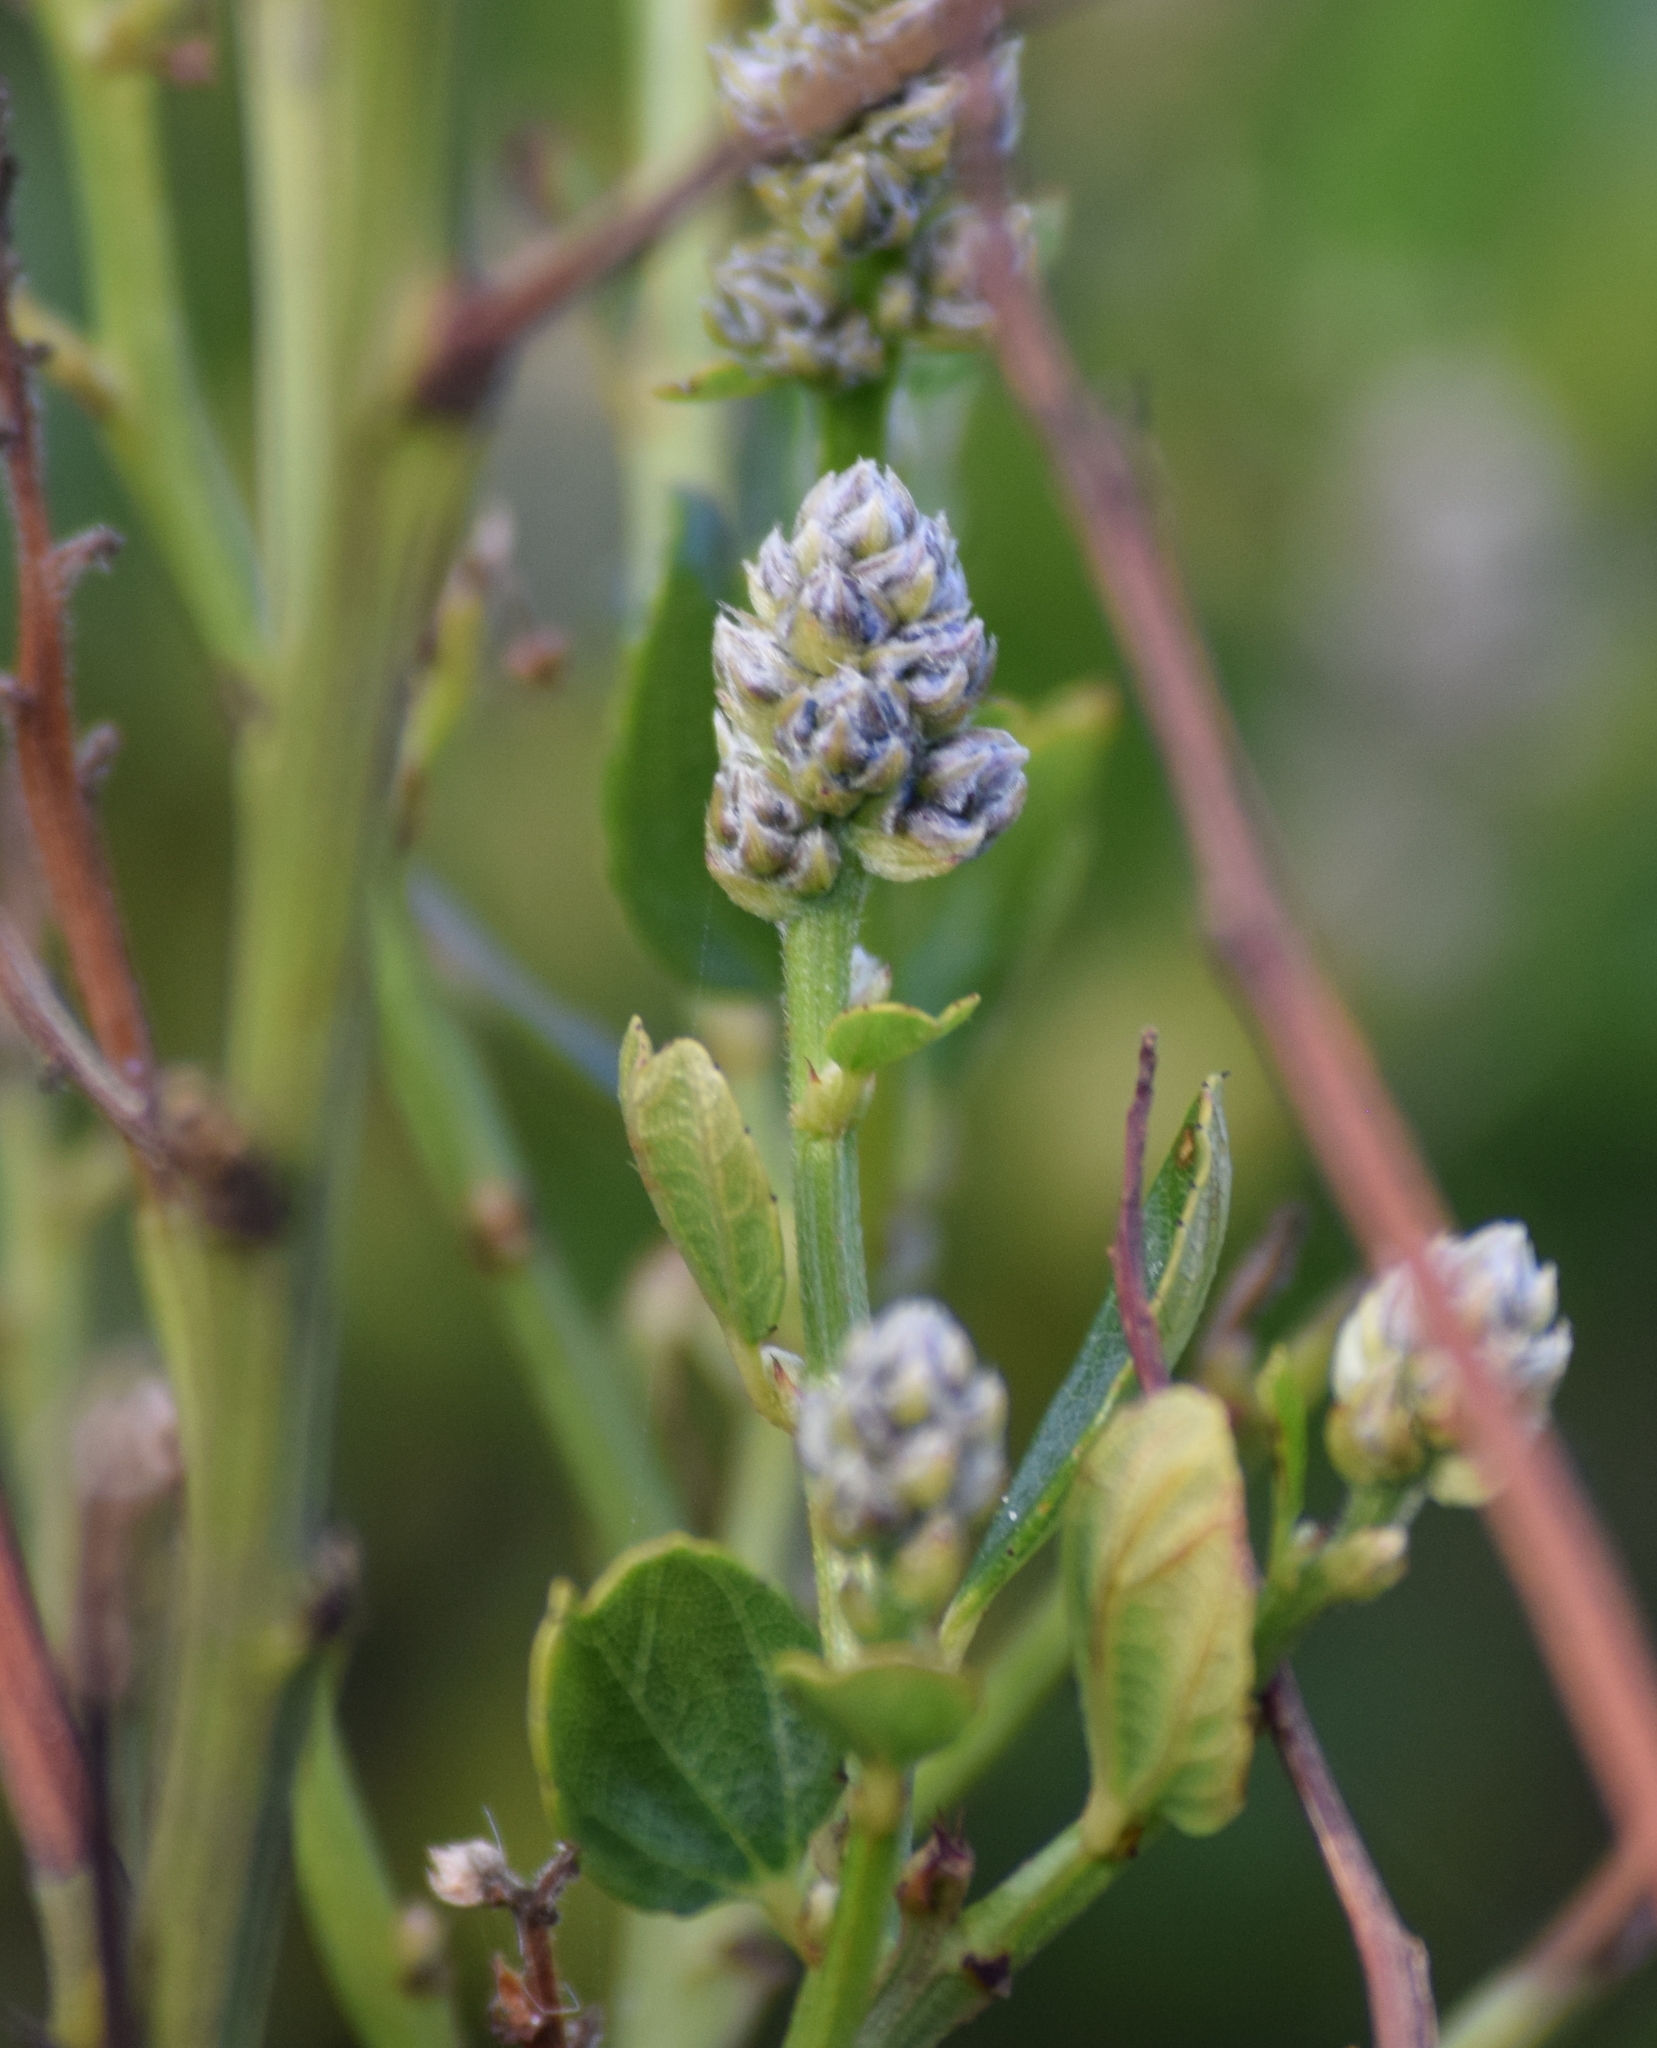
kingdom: Plantae
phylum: Tracheophyta
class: Magnoliopsida
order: Rosales
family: Rhamnaceae
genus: Ceanothus
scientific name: Ceanothus thyrsiflorus
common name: California-lilac
